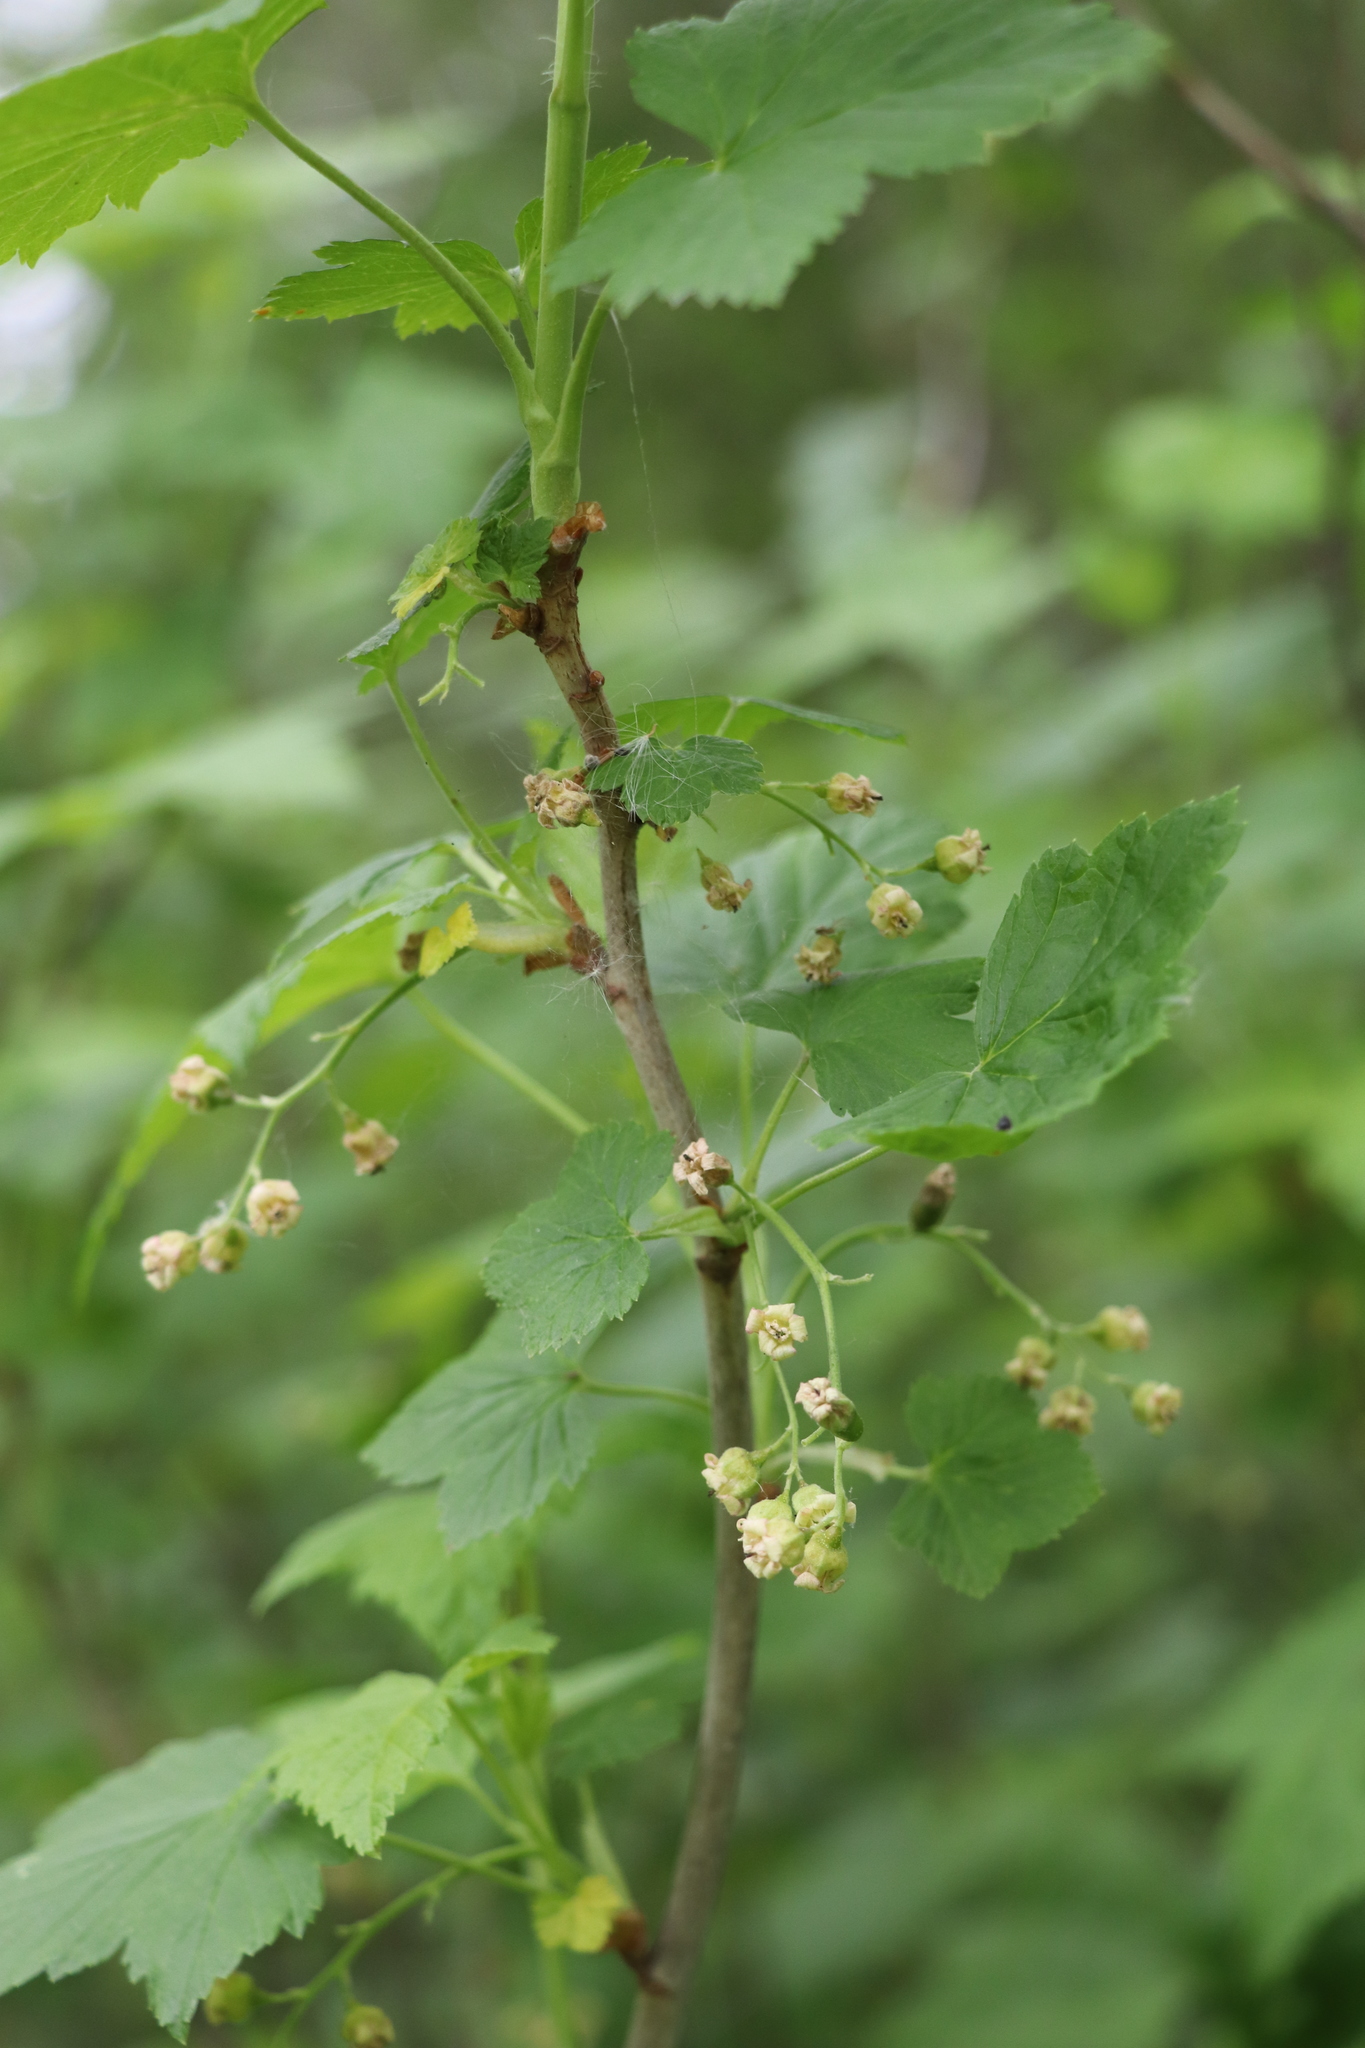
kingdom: Plantae
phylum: Tracheophyta
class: Magnoliopsida
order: Saxifragales
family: Grossulariaceae
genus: Ribes
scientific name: Ribes nigrum
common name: Black currant
